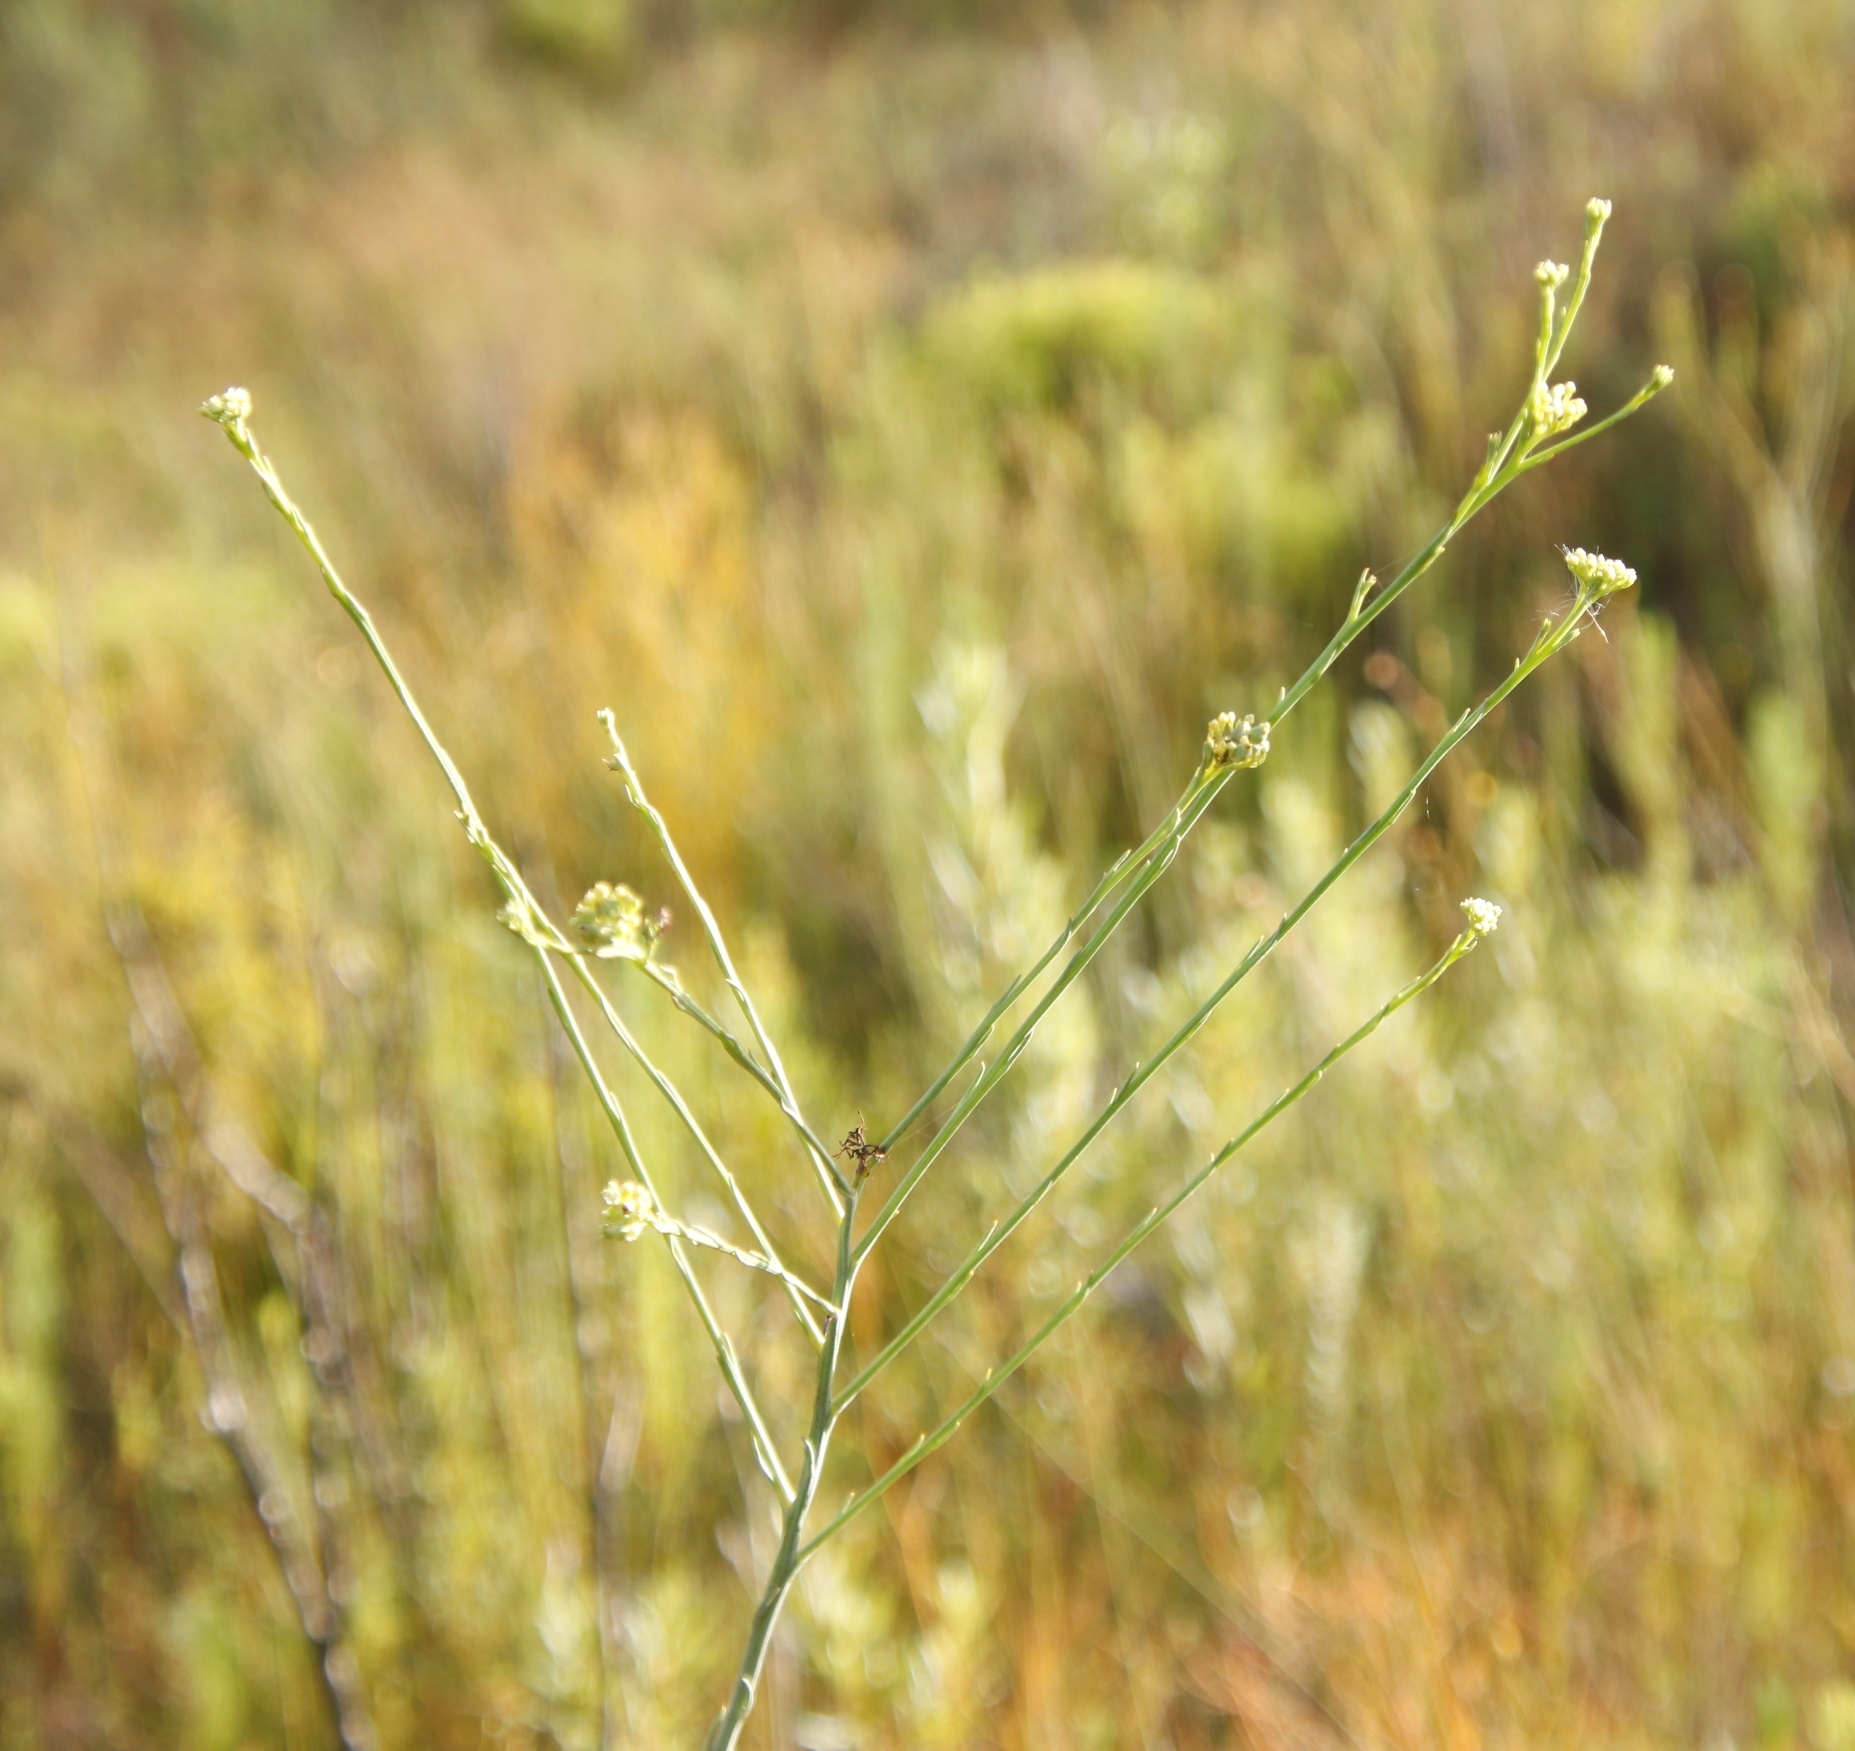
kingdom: Plantae
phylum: Tracheophyta
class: Magnoliopsida
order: Santalales
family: Thesiaceae
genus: Thesium
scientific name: Thesium strictum
